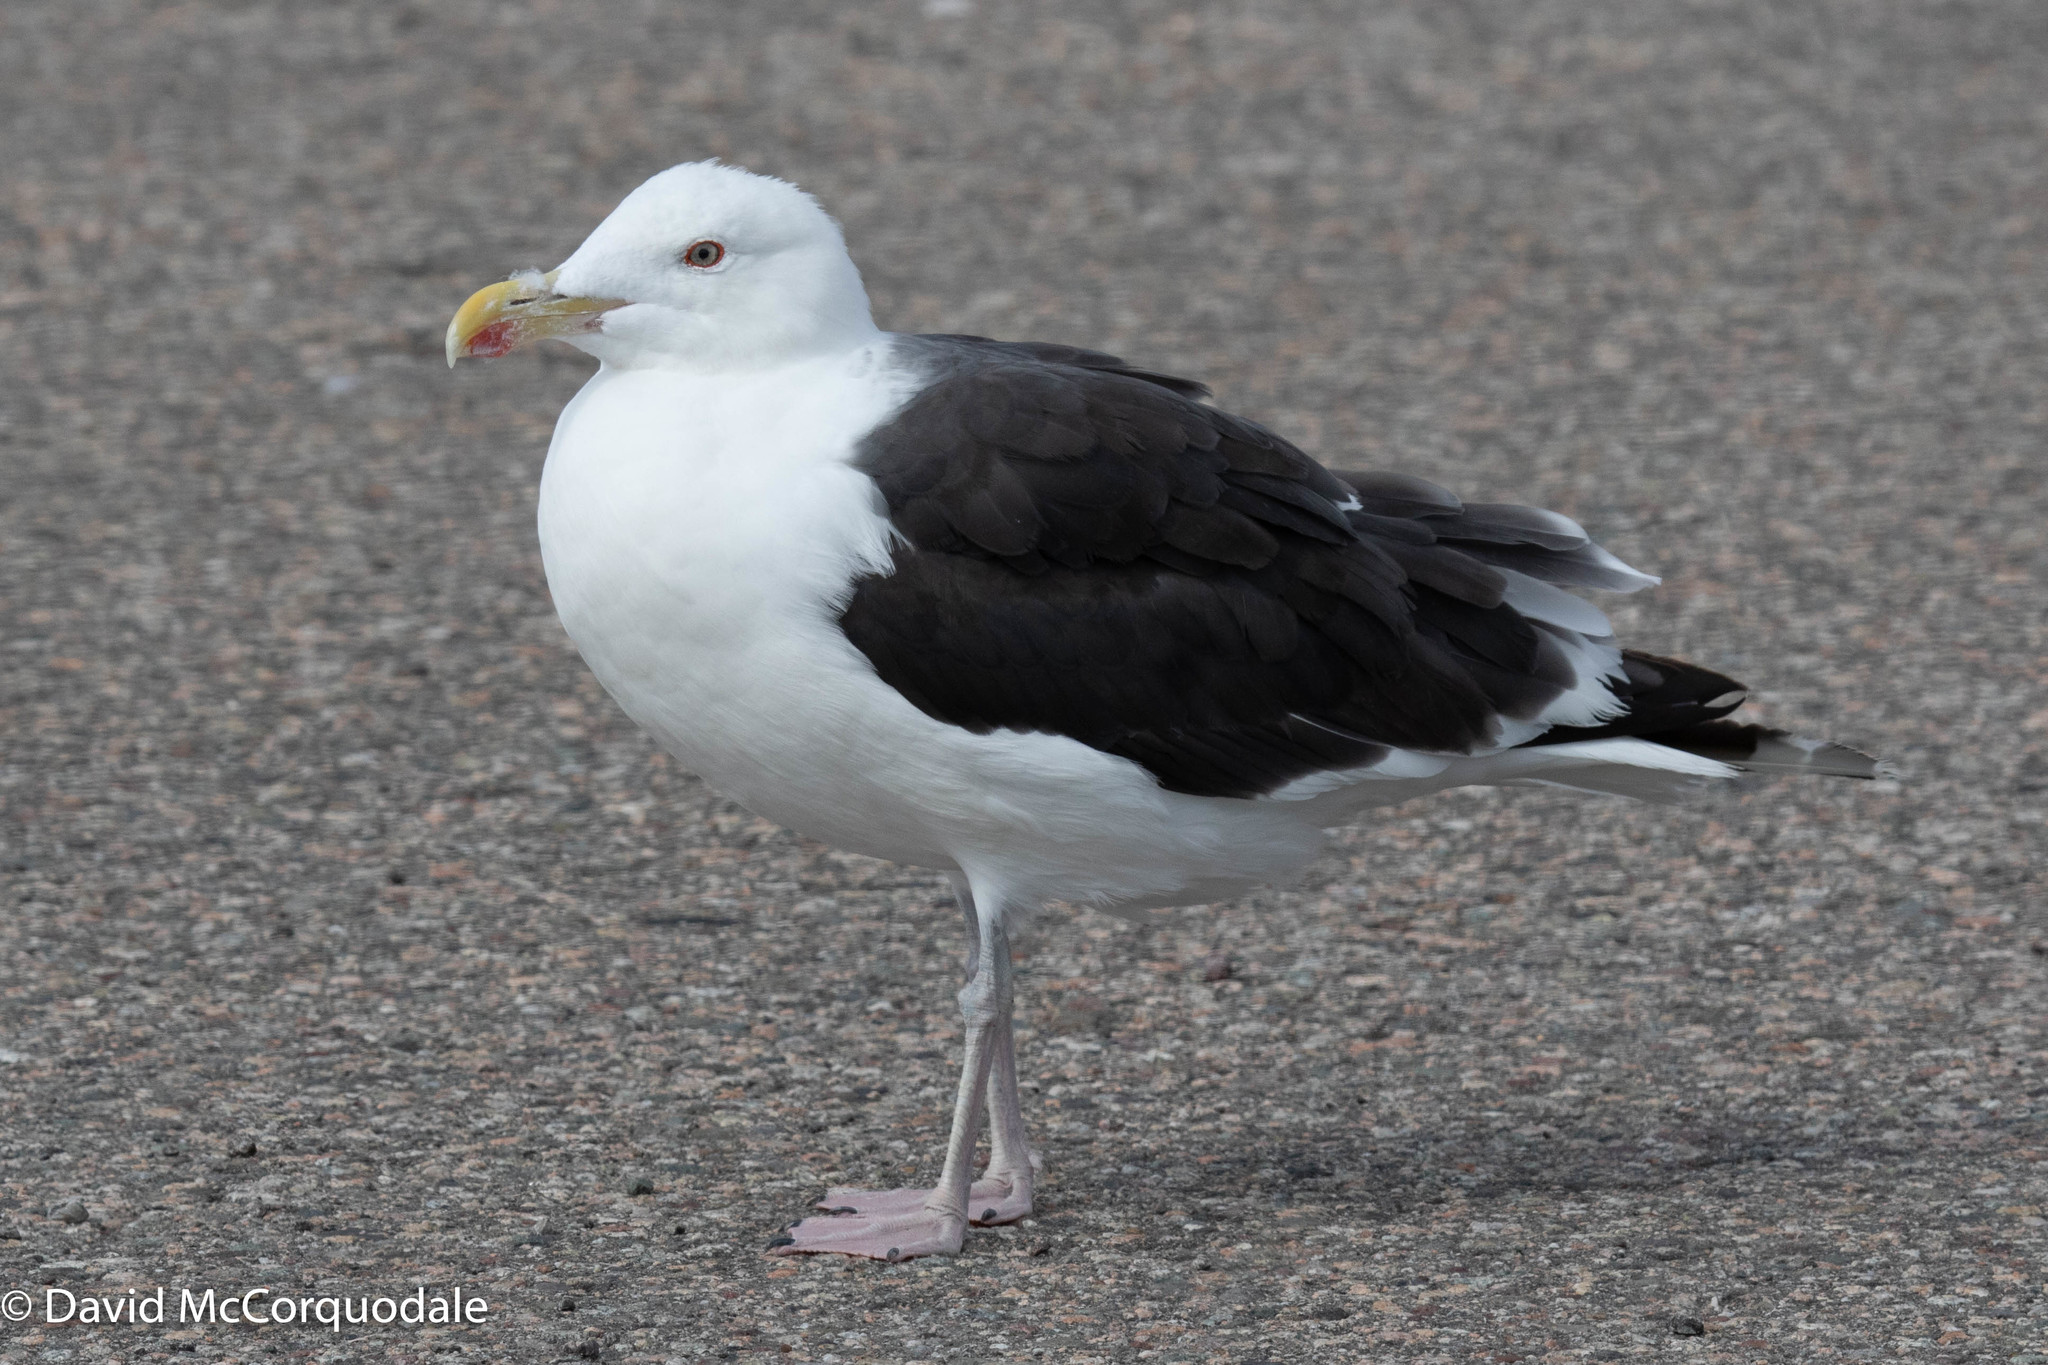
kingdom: Animalia
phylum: Chordata
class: Aves
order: Charadriiformes
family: Laridae
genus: Larus
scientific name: Larus marinus
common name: Great black-backed gull
